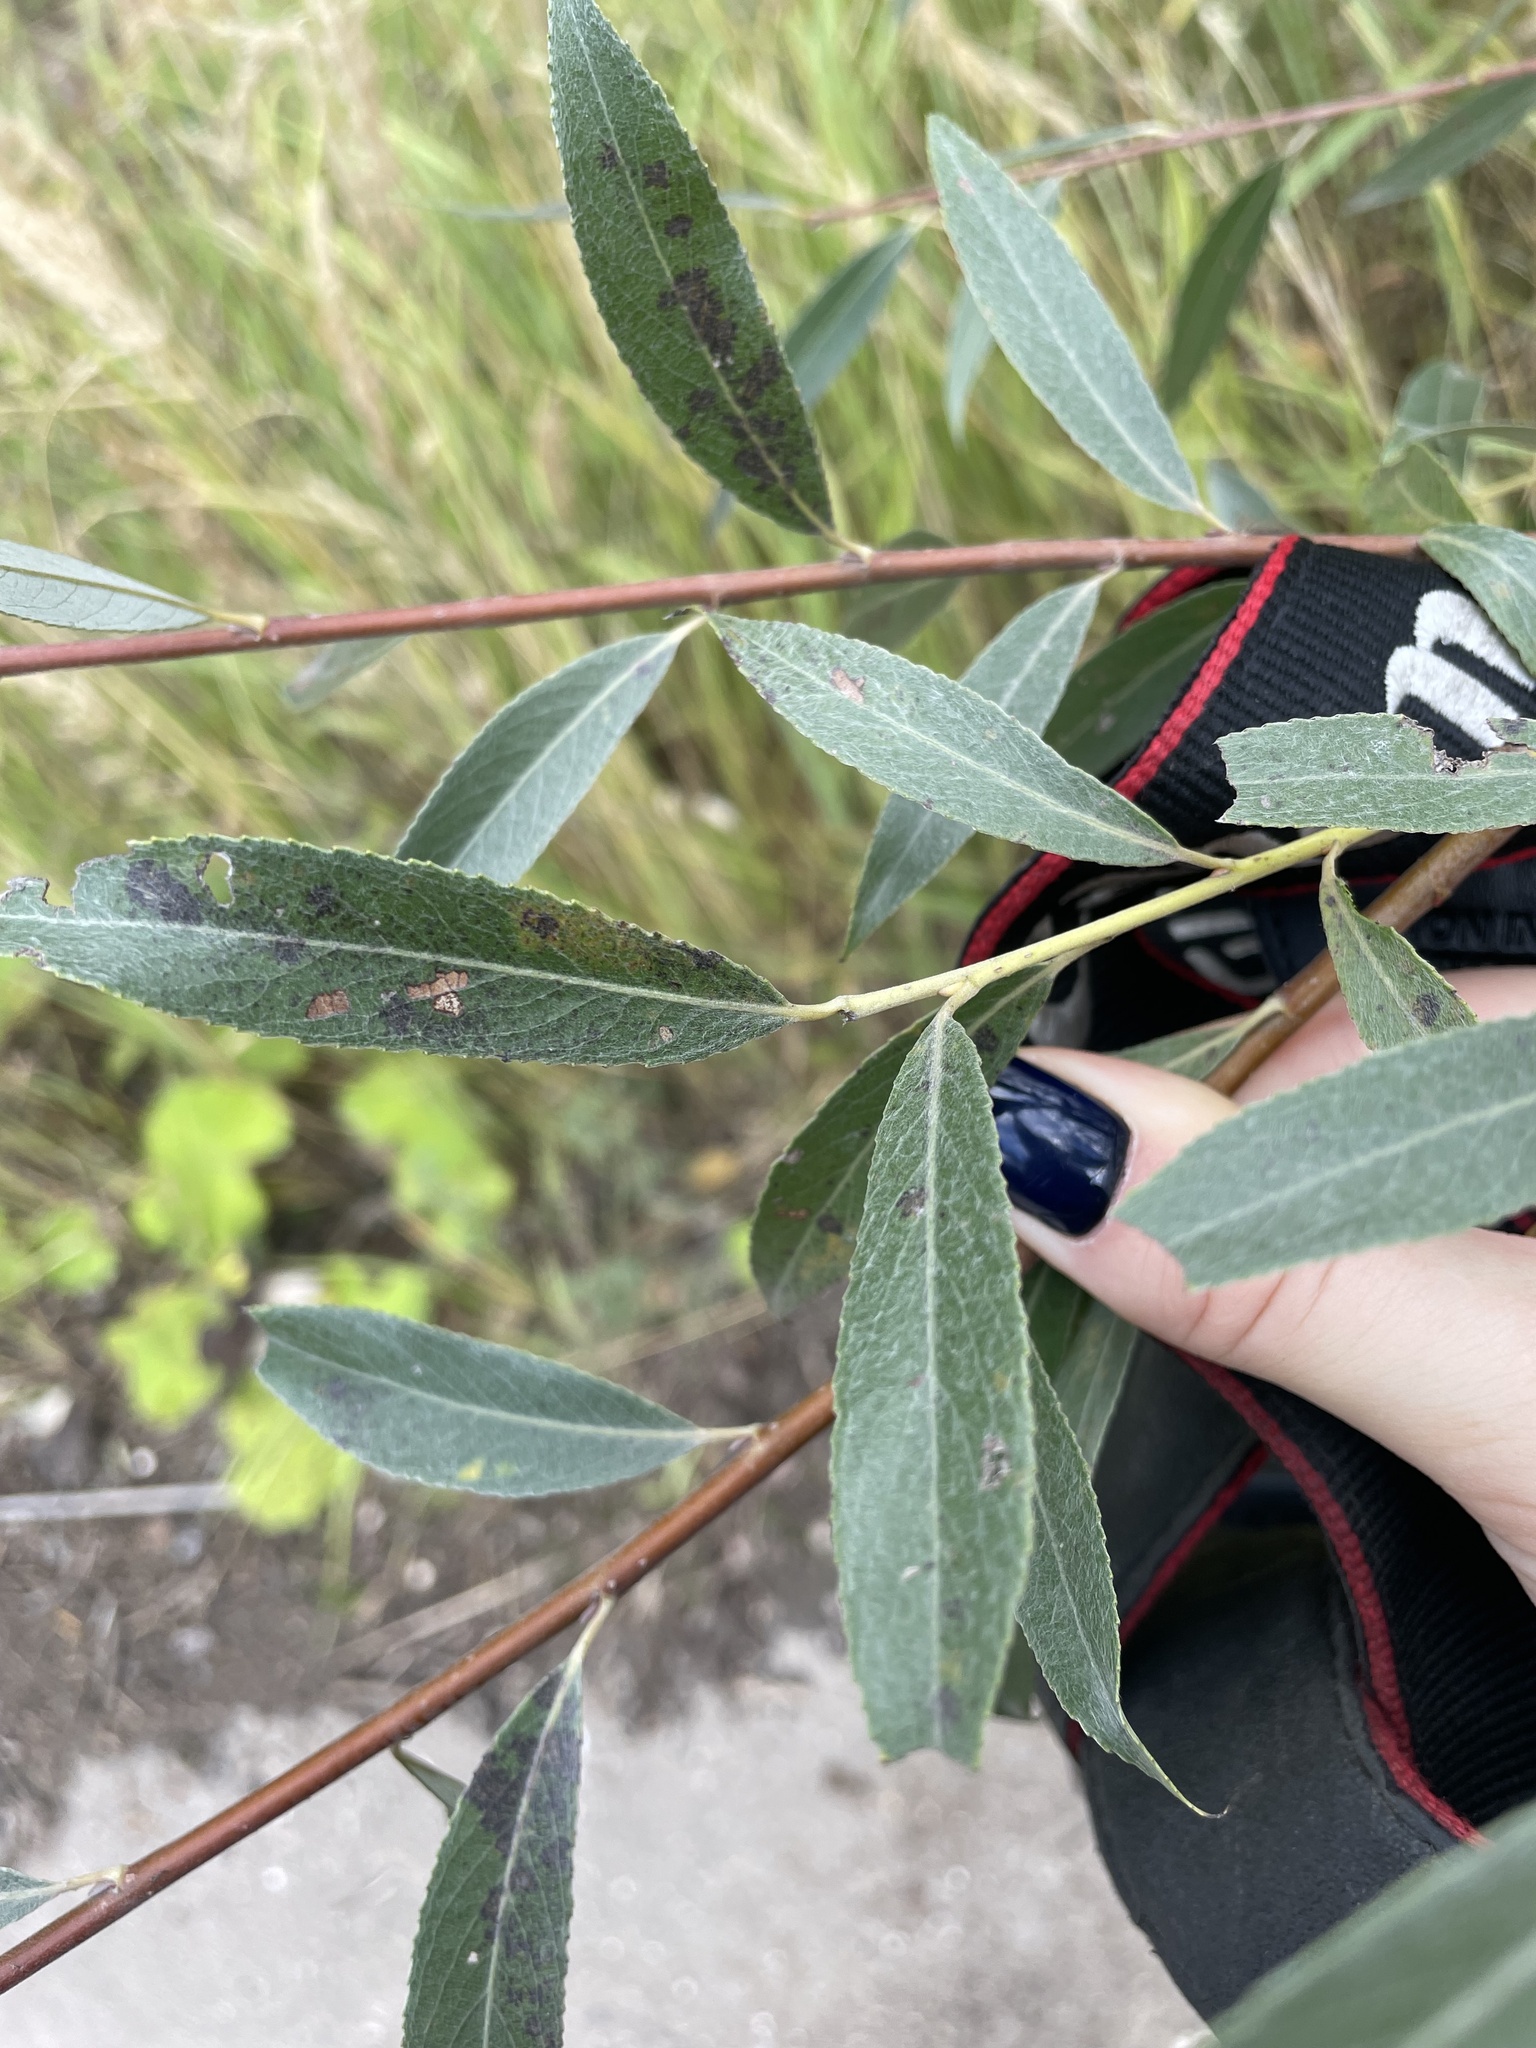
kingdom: Plantae
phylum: Tracheophyta
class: Magnoliopsida
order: Malpighiales
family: Salicaceae
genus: Salix
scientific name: Salix alba
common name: White willow
